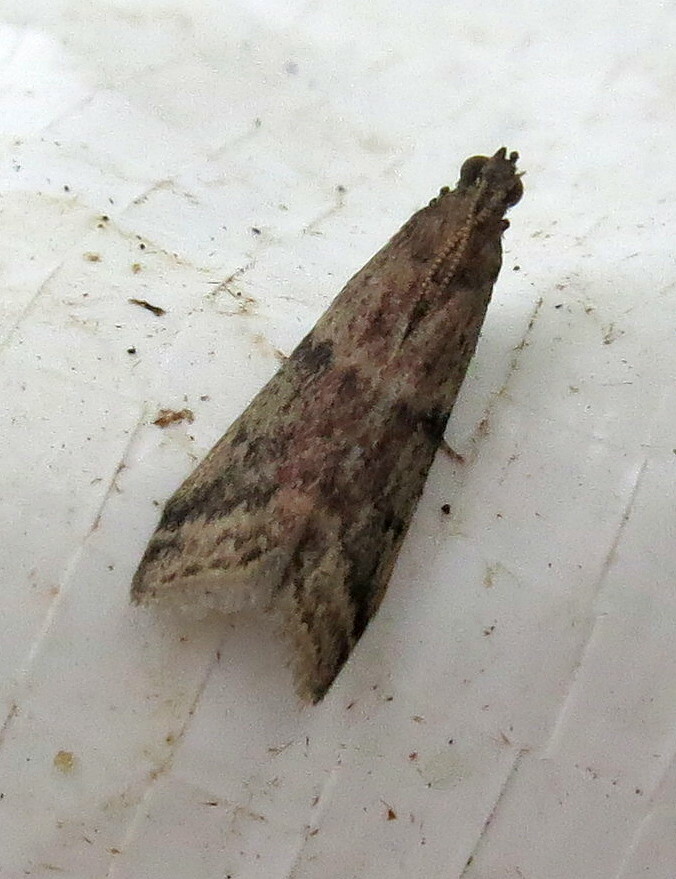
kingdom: Animalia
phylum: Arthropoda
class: Insecta
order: Lepidoptera
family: Pyralidae
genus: Ephestia
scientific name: Ephestia woodiella
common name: False cacao moth
